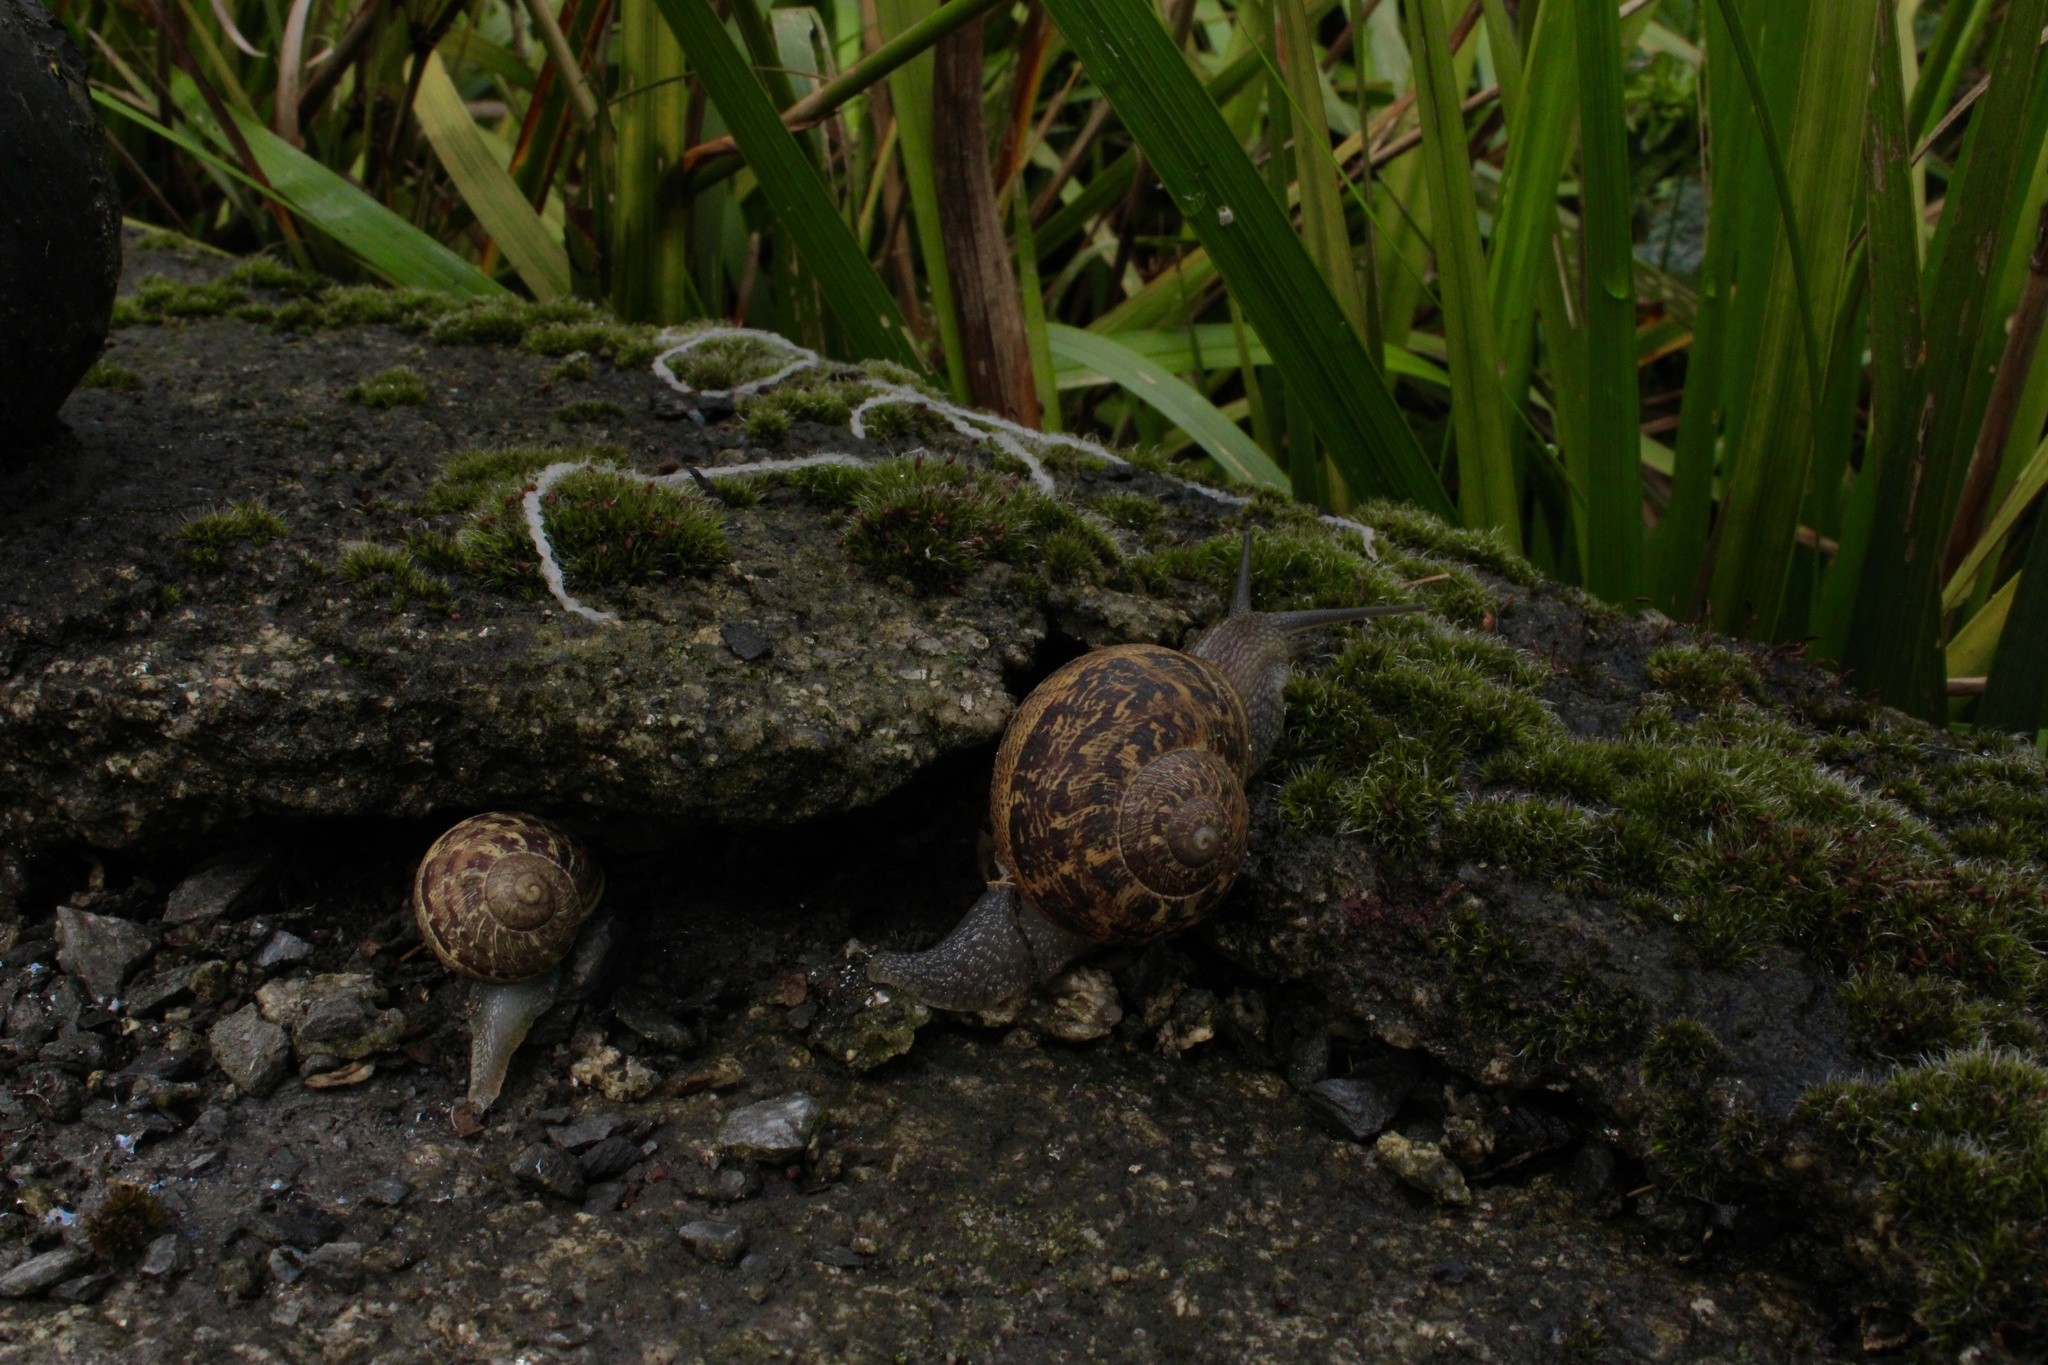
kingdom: Animalia
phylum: Mollusca
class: Gastropoda
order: Stylommatophora
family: Helicidae
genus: Cornu
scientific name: Cornu aspersum
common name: Brown garden snail
